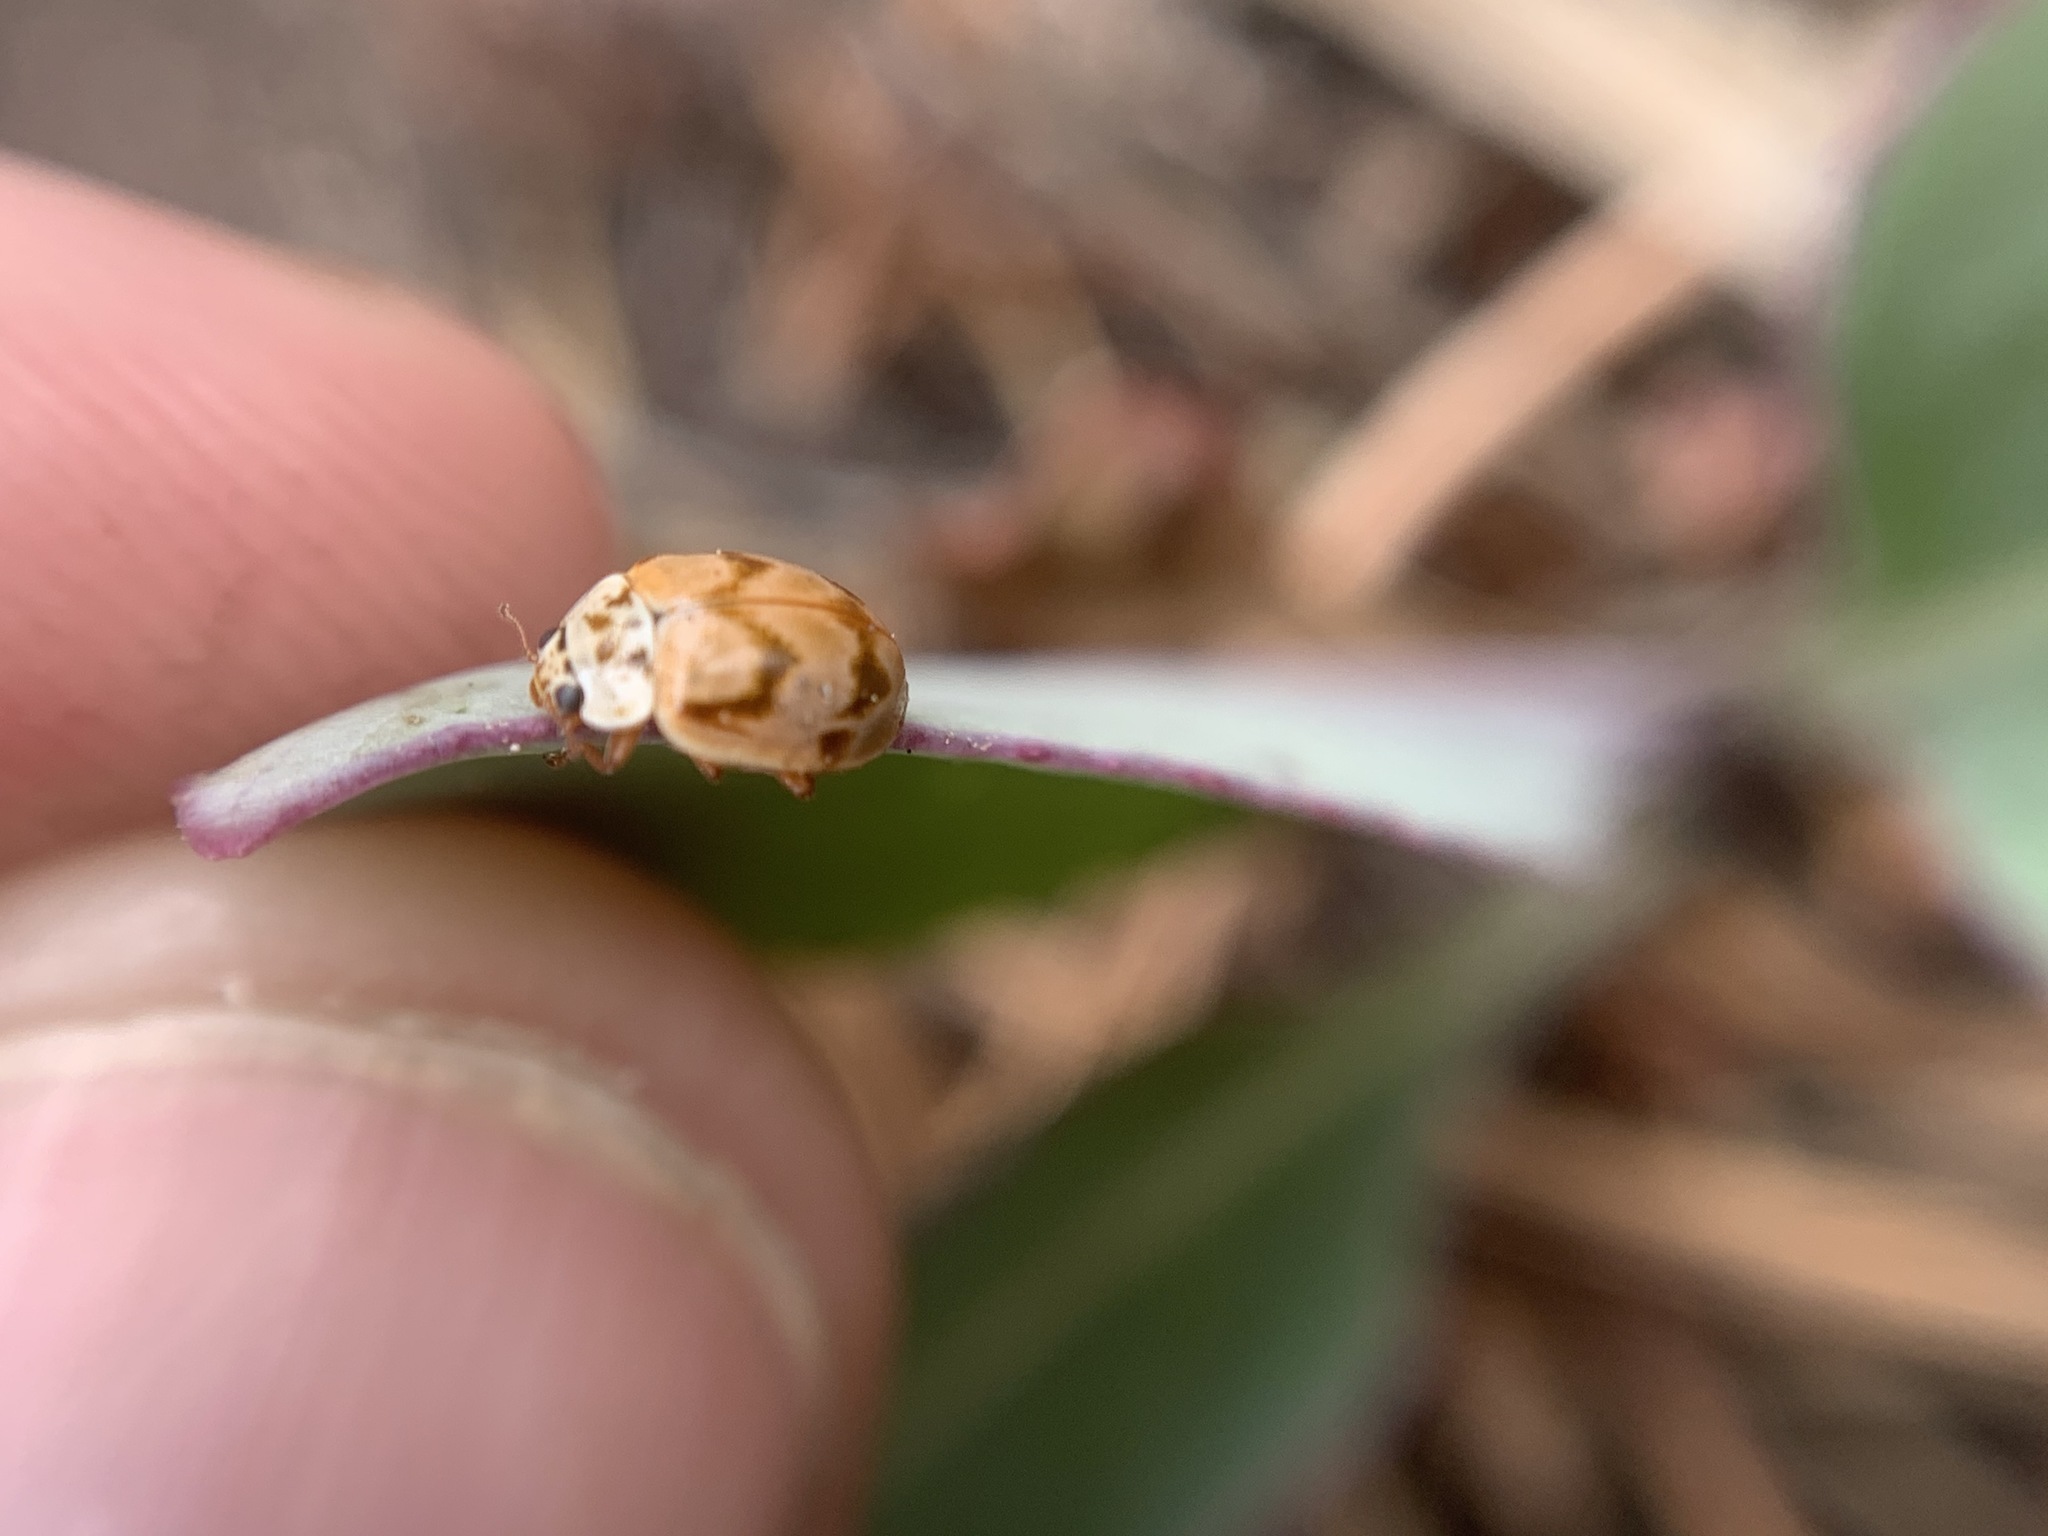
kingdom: Animalia
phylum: Arthropoda
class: Insecta
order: Coleoptera
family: Coccinellidae
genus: Mulsantina
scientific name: Mulsantina picta
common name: Painted ladybird
